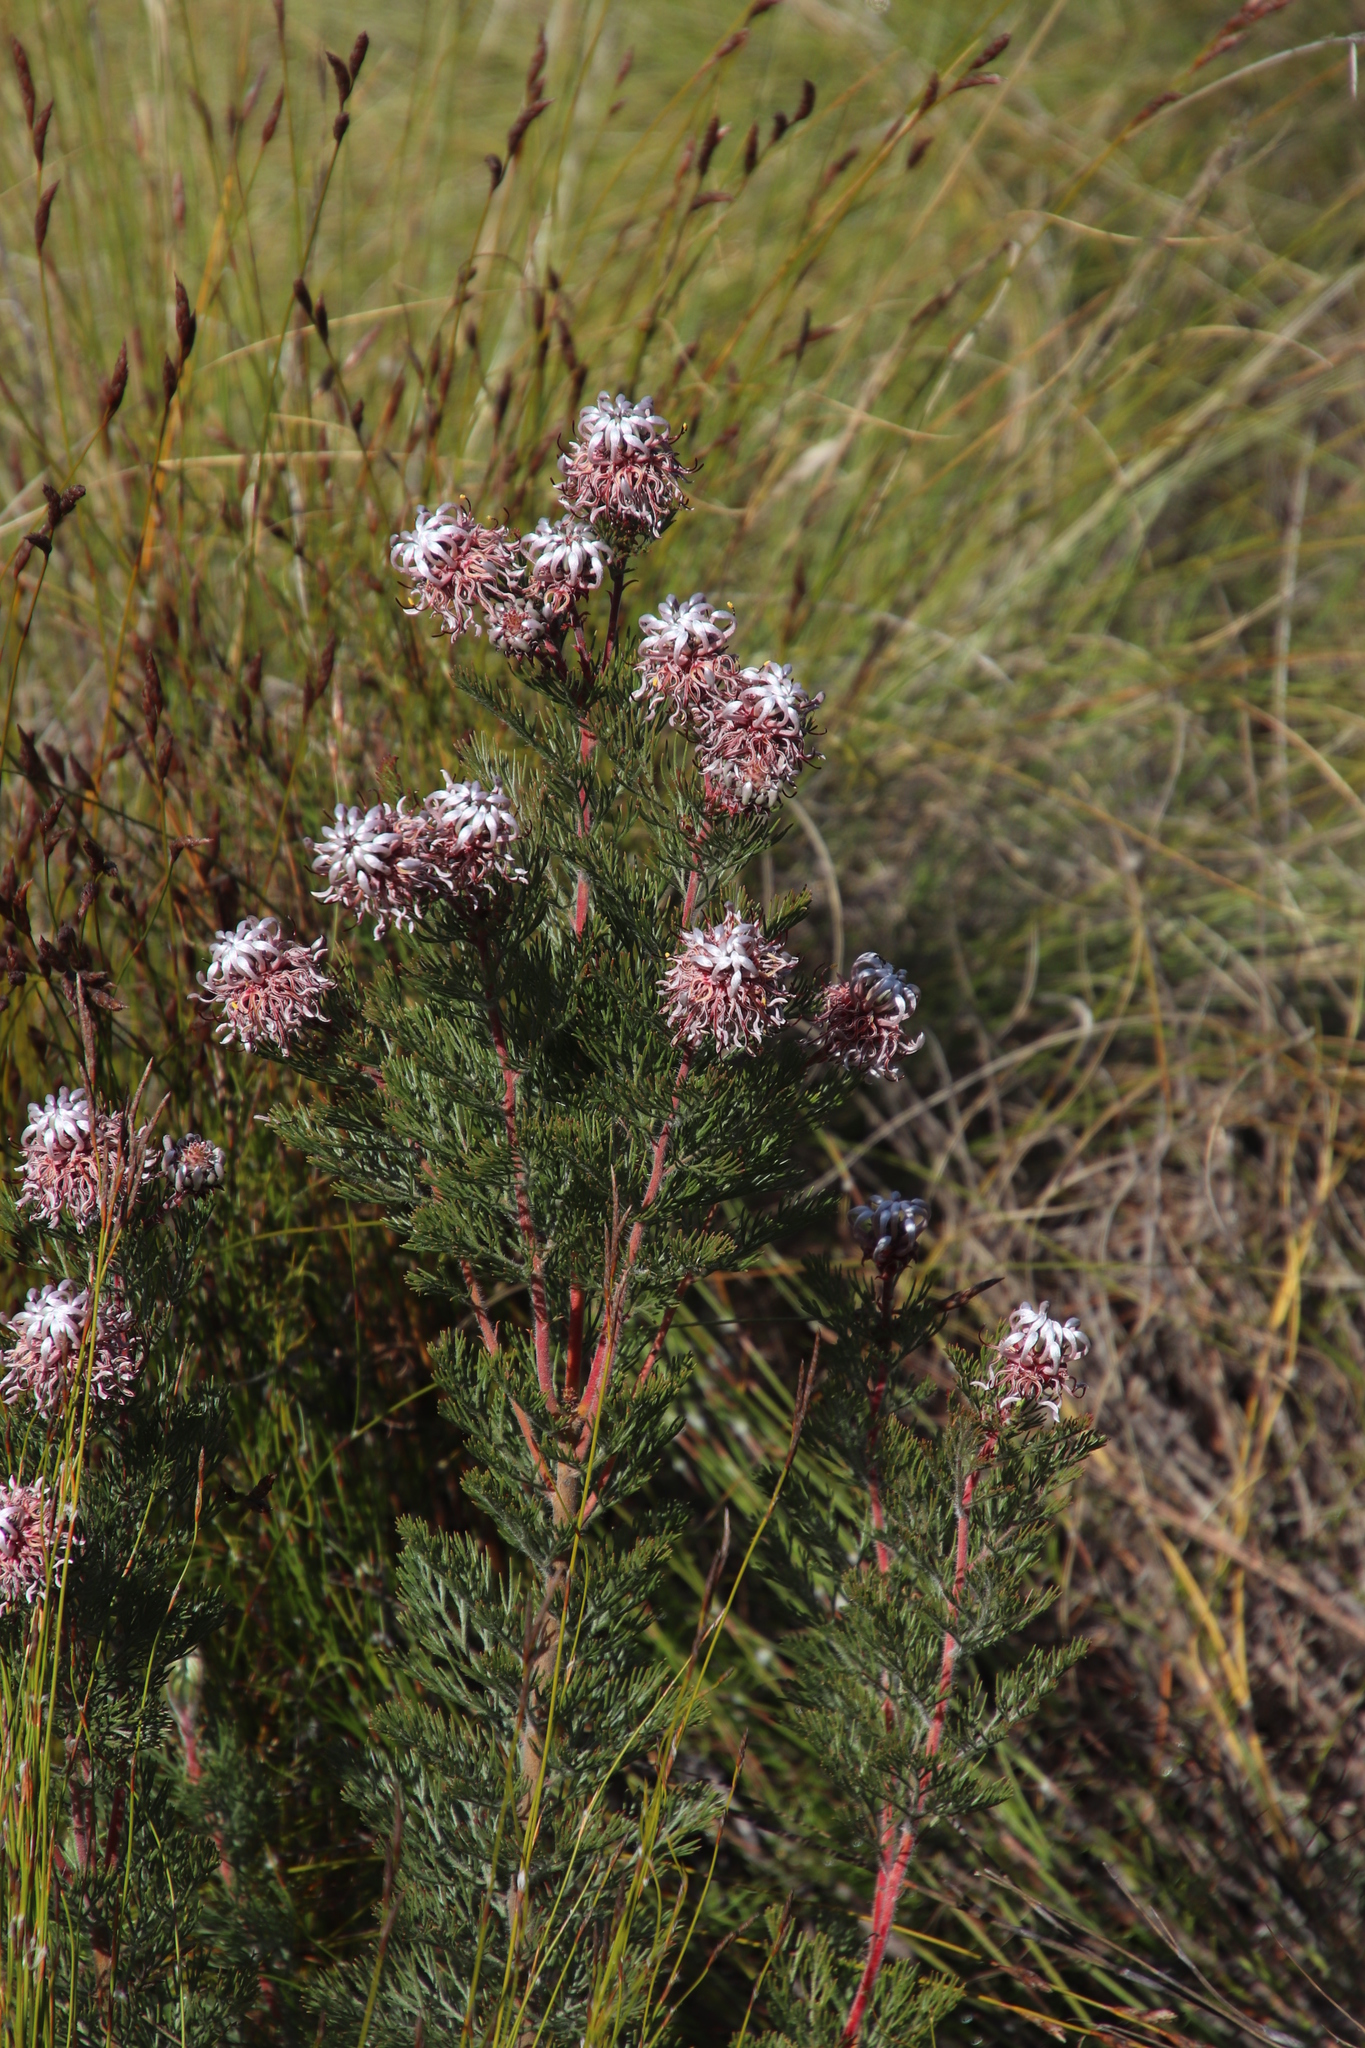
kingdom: Plantae
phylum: Tracheophyta
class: Magnoliopsida
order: Proteales
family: Proteaceae
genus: Serruria
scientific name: Serruria pedunculata
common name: Fan-leaf spiderhead
